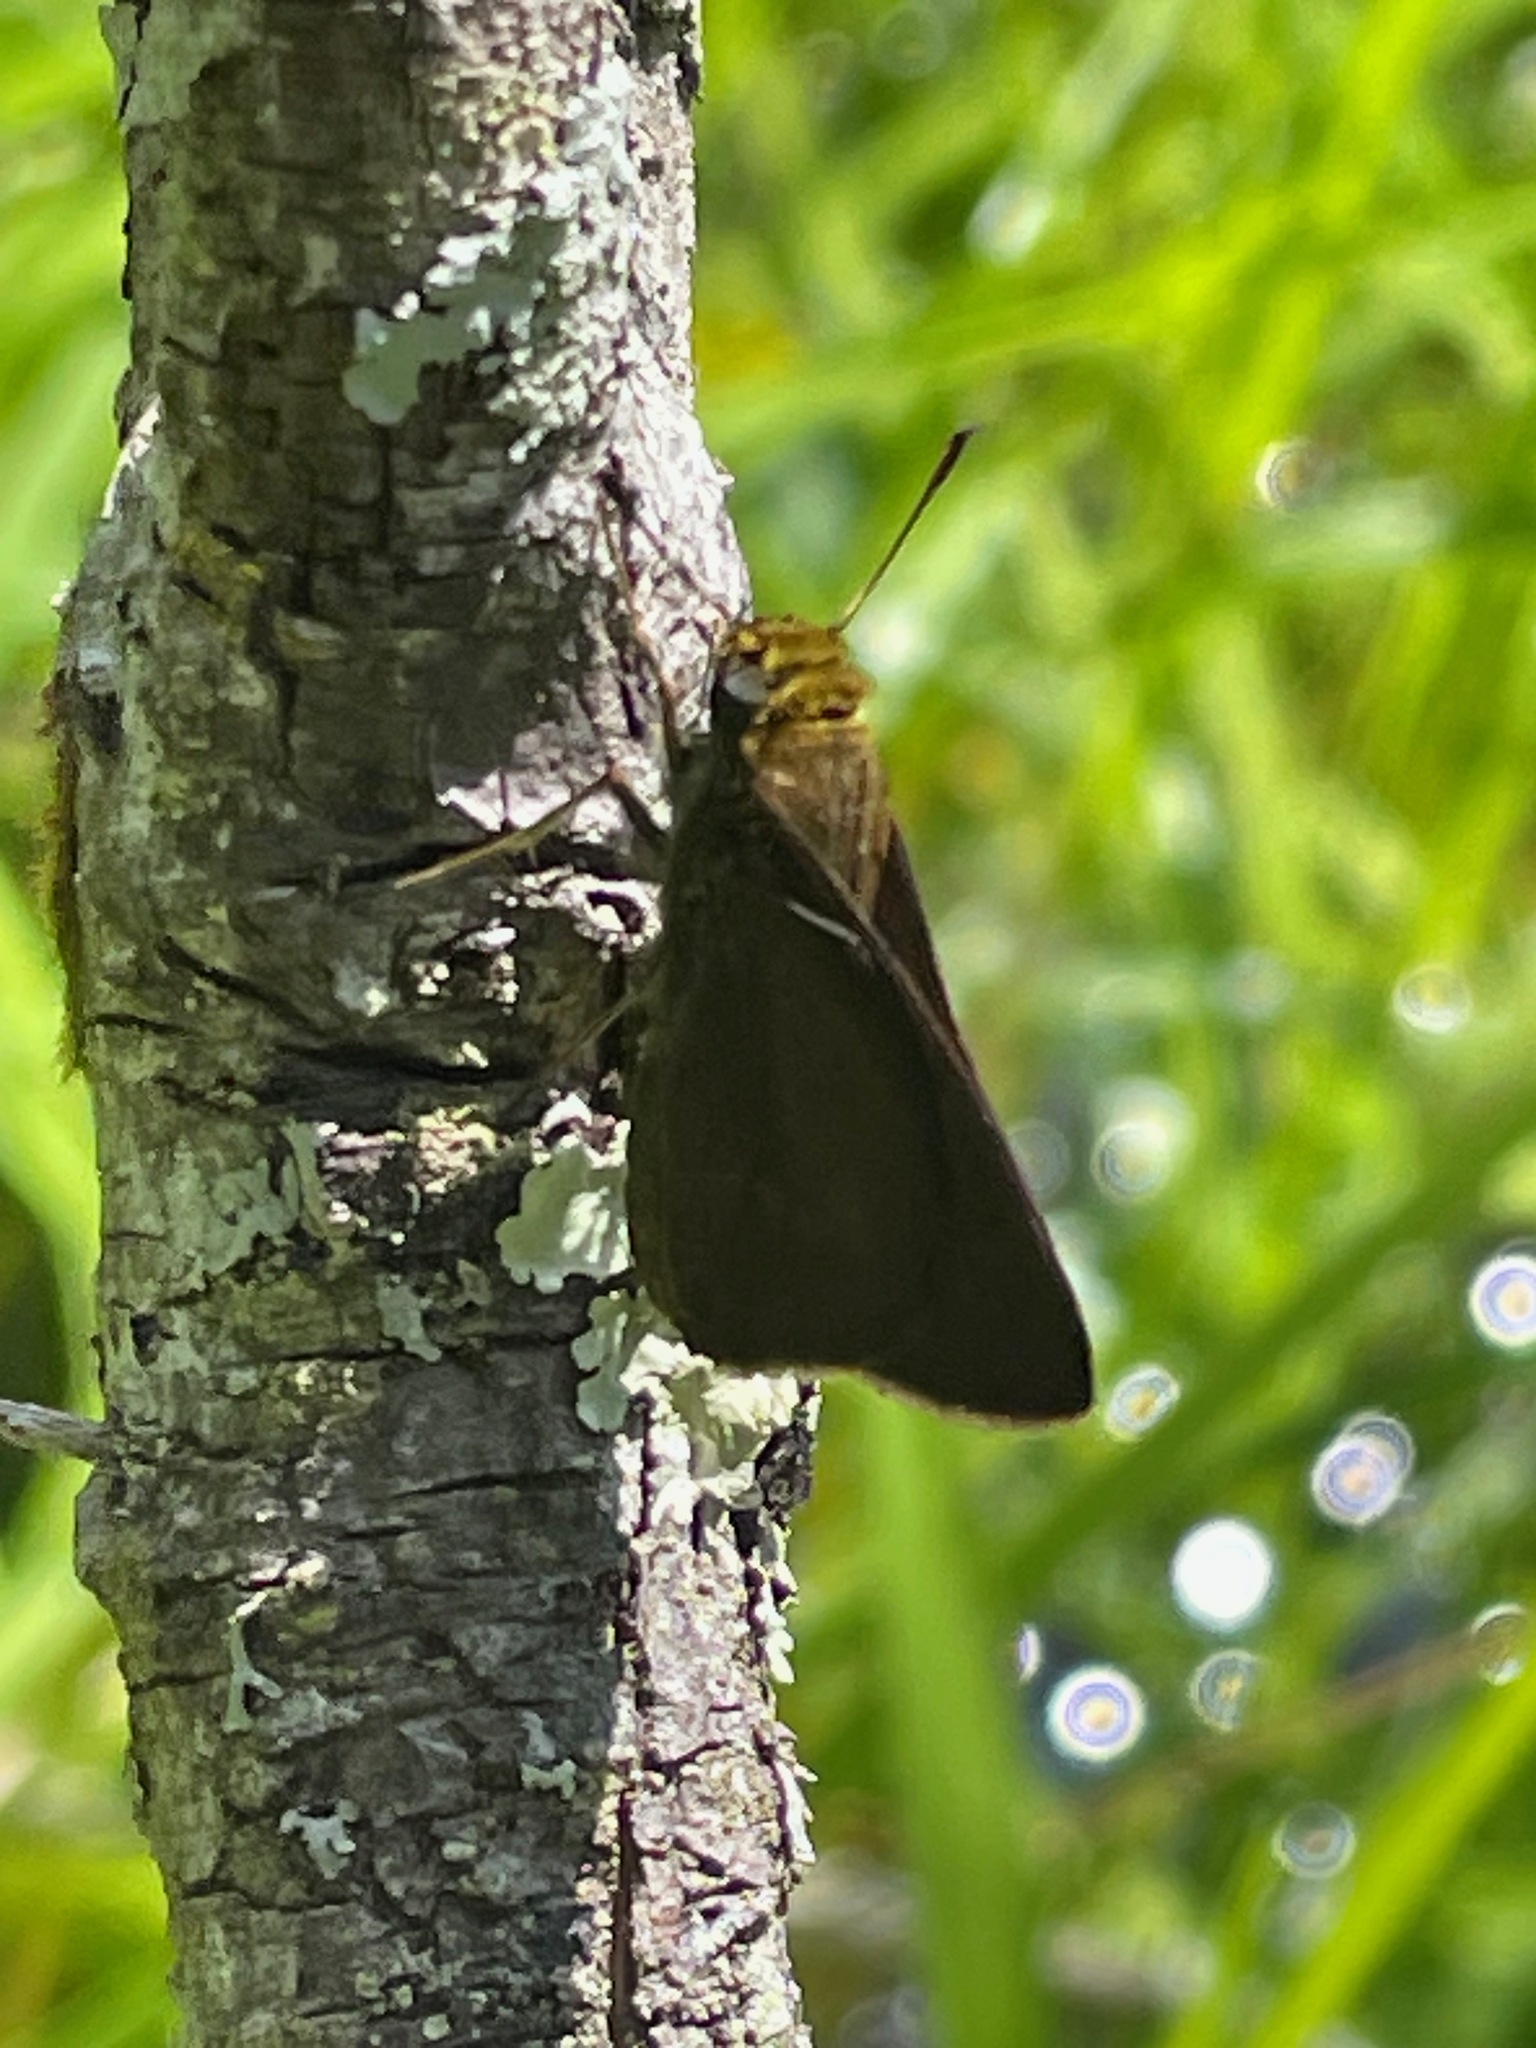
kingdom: Animalia
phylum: Arthropoda
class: Insecta
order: Lepidoptera
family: Hesperiidae
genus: Euphyes
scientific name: Euphyes vestris
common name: Dun skipper
